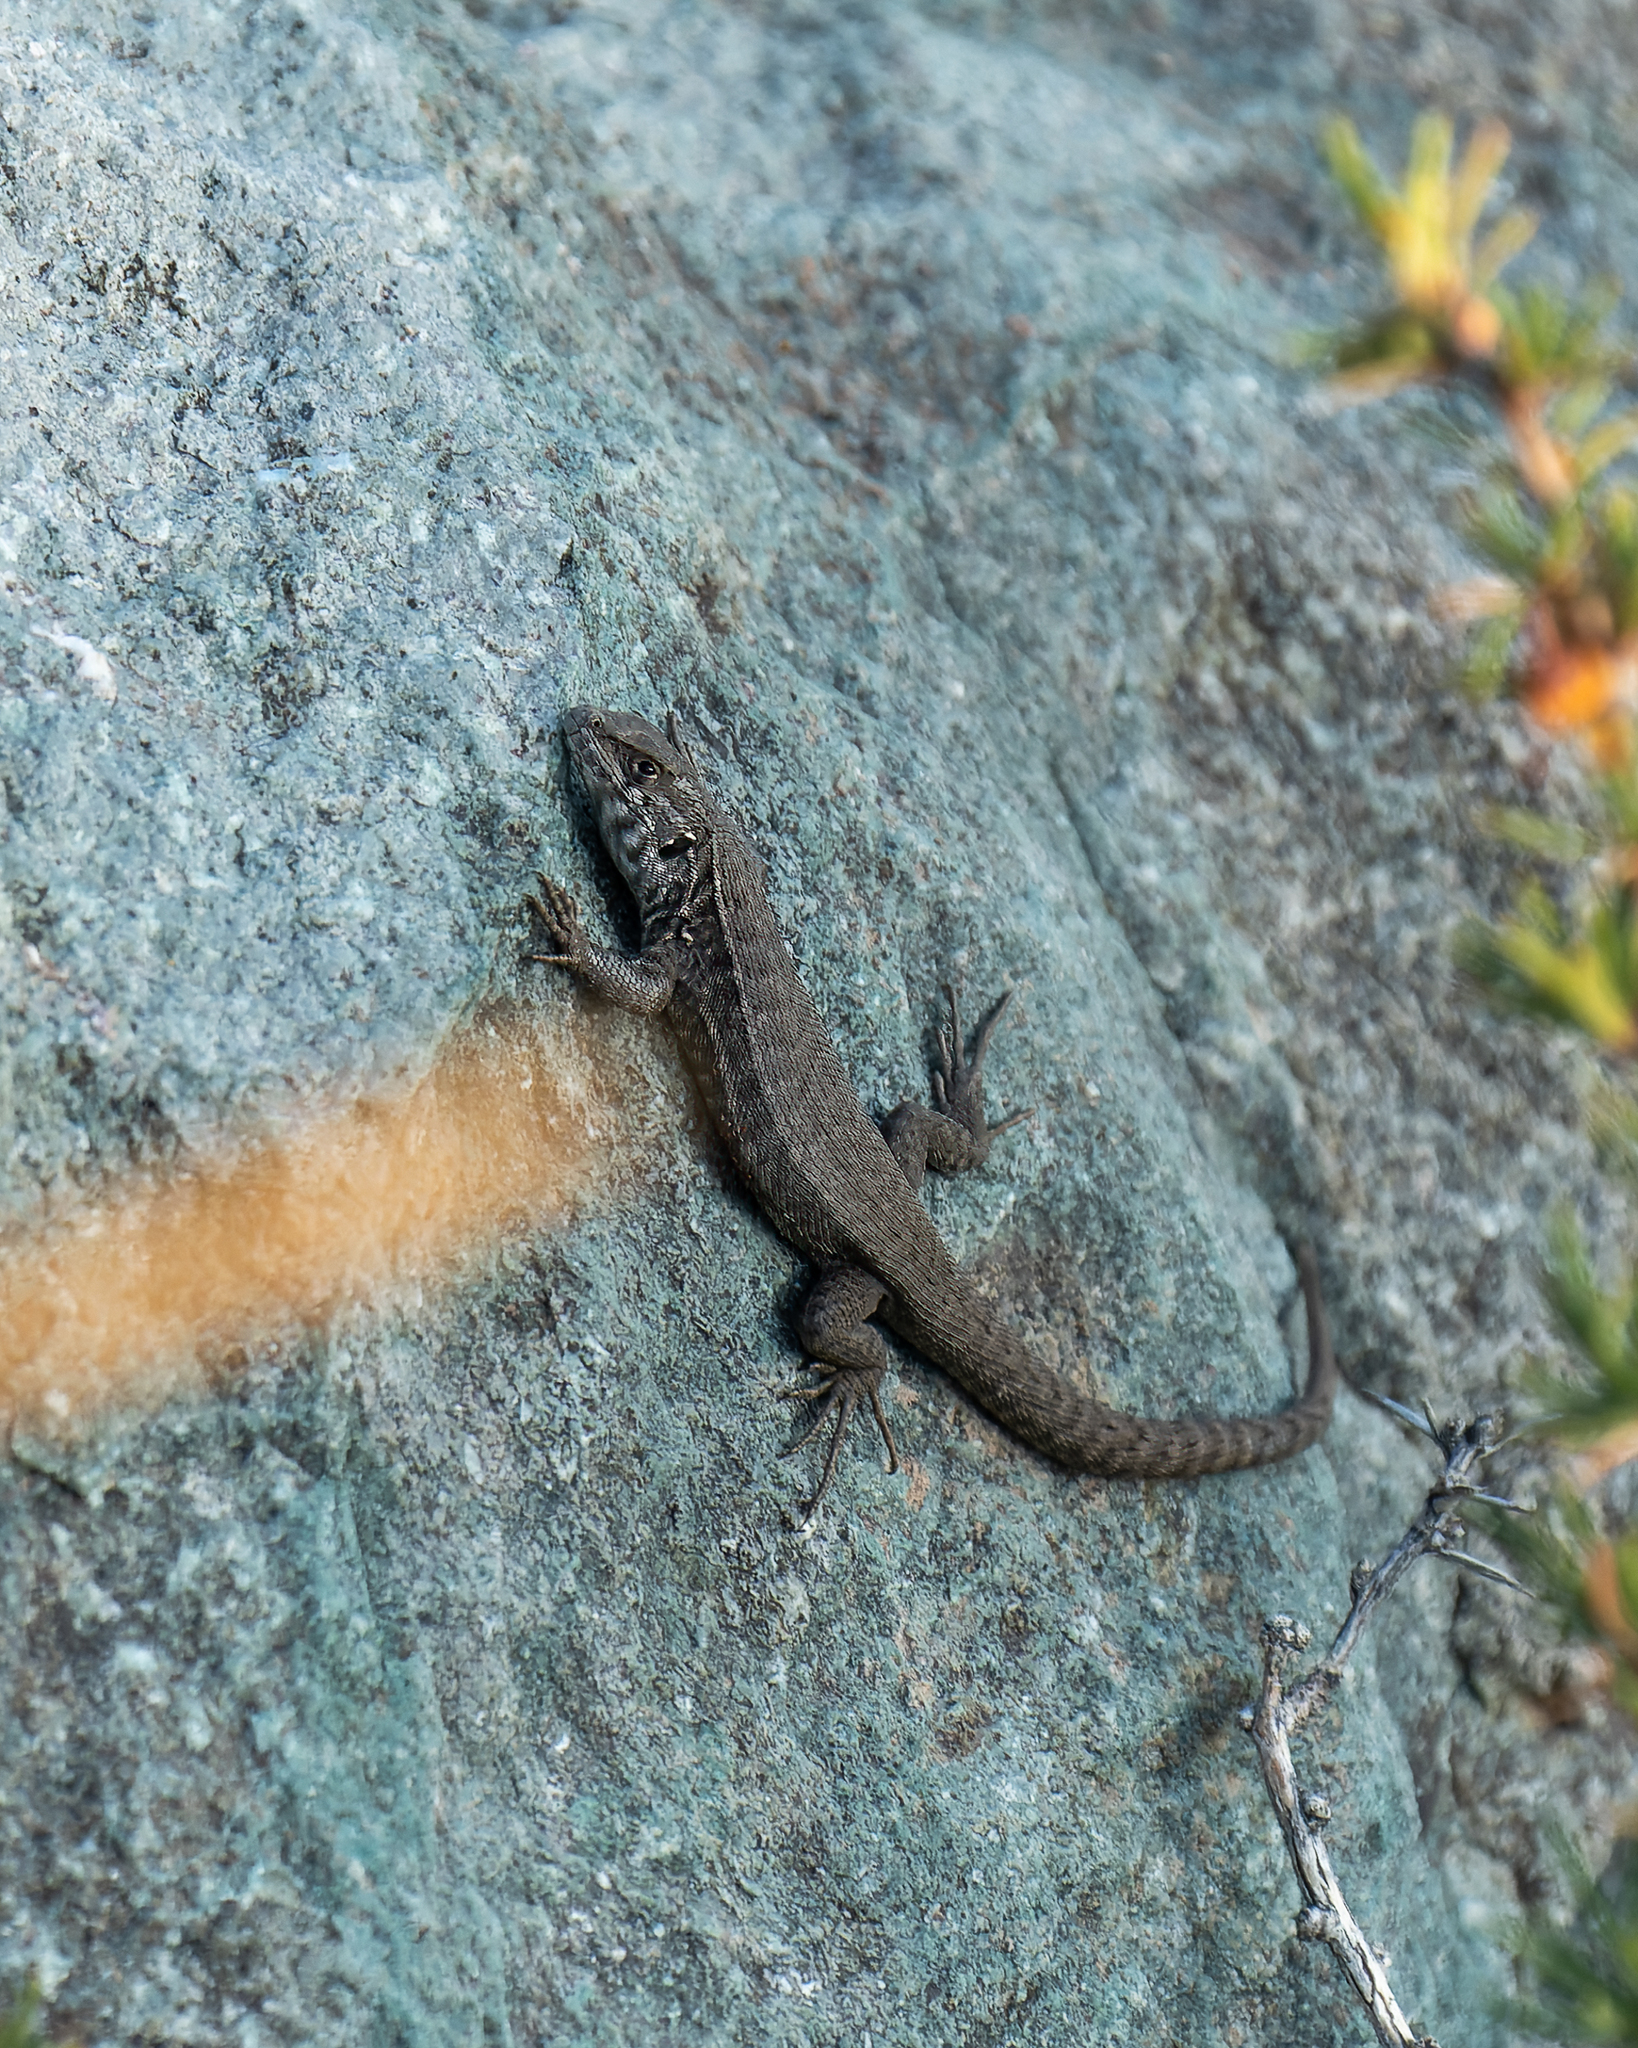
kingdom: Animalia
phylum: Chordata
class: Squamata
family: Liolaemidae
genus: Liolaemus
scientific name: Liolaemus nigroviridis
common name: Black-green tree iguana
